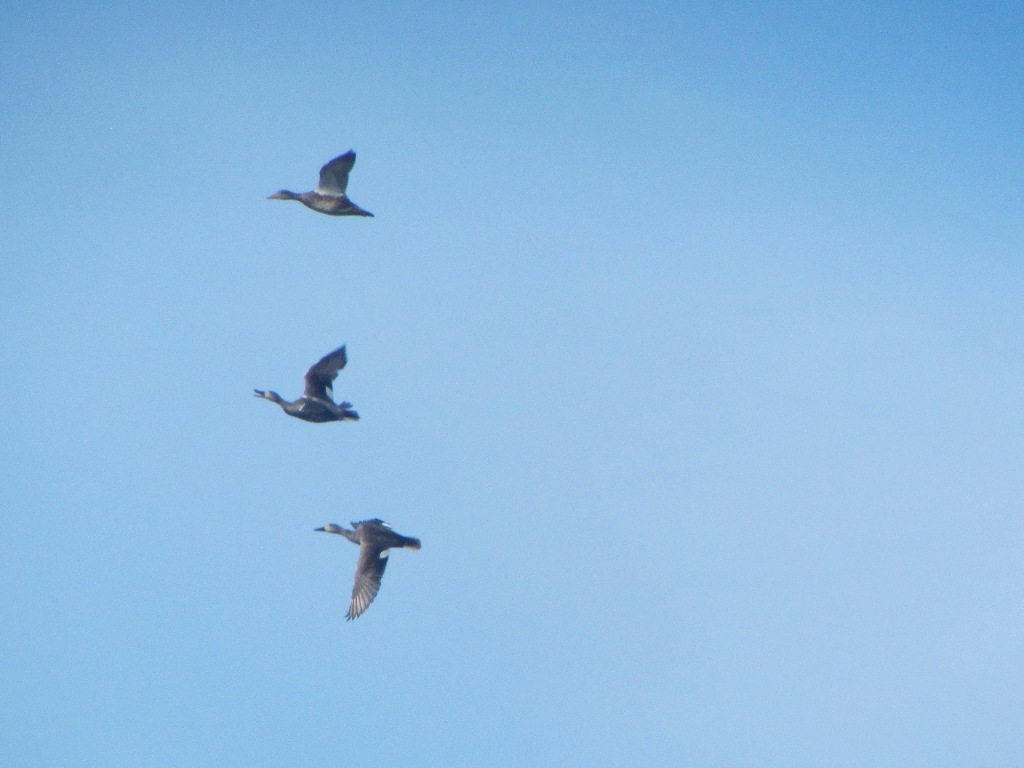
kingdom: Animalia
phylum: Chordata
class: Aves
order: Anseriformes
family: Anatidae
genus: Mareca
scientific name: Mareca strepera
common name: Gadwall
